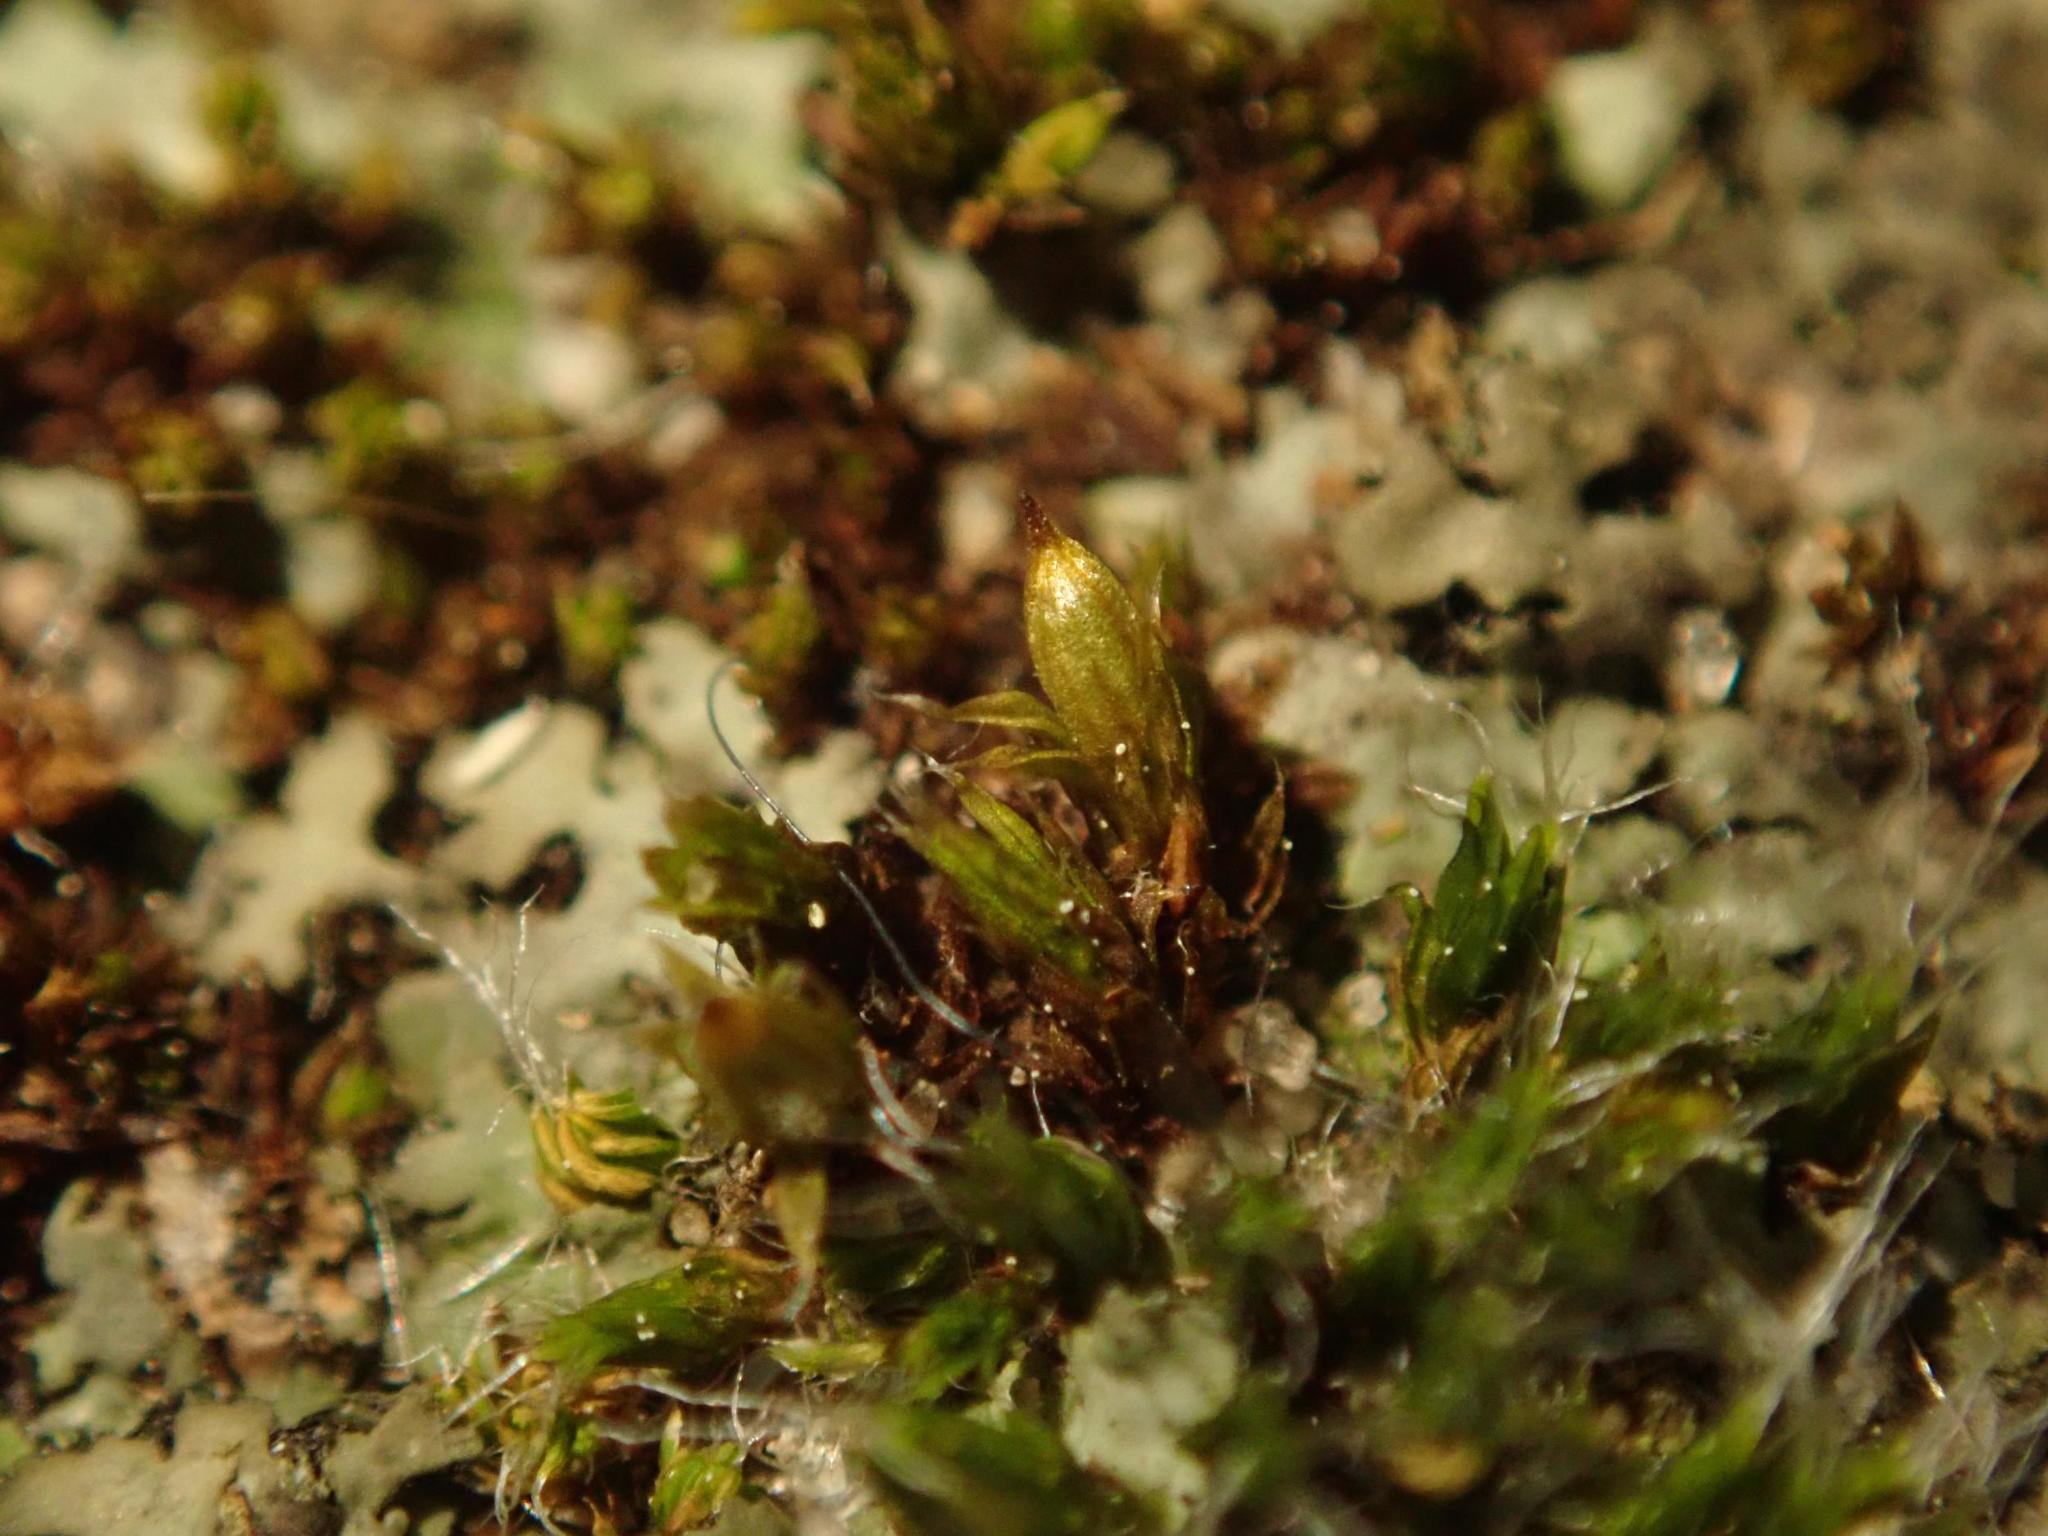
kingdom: Plantae
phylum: Bryophyta
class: Bryopsida
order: Orthotrichales
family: Orthotrichaceae
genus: Orthotrichum
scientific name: Orthotrichum diaphanum
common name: White-tipped bristle-moss
